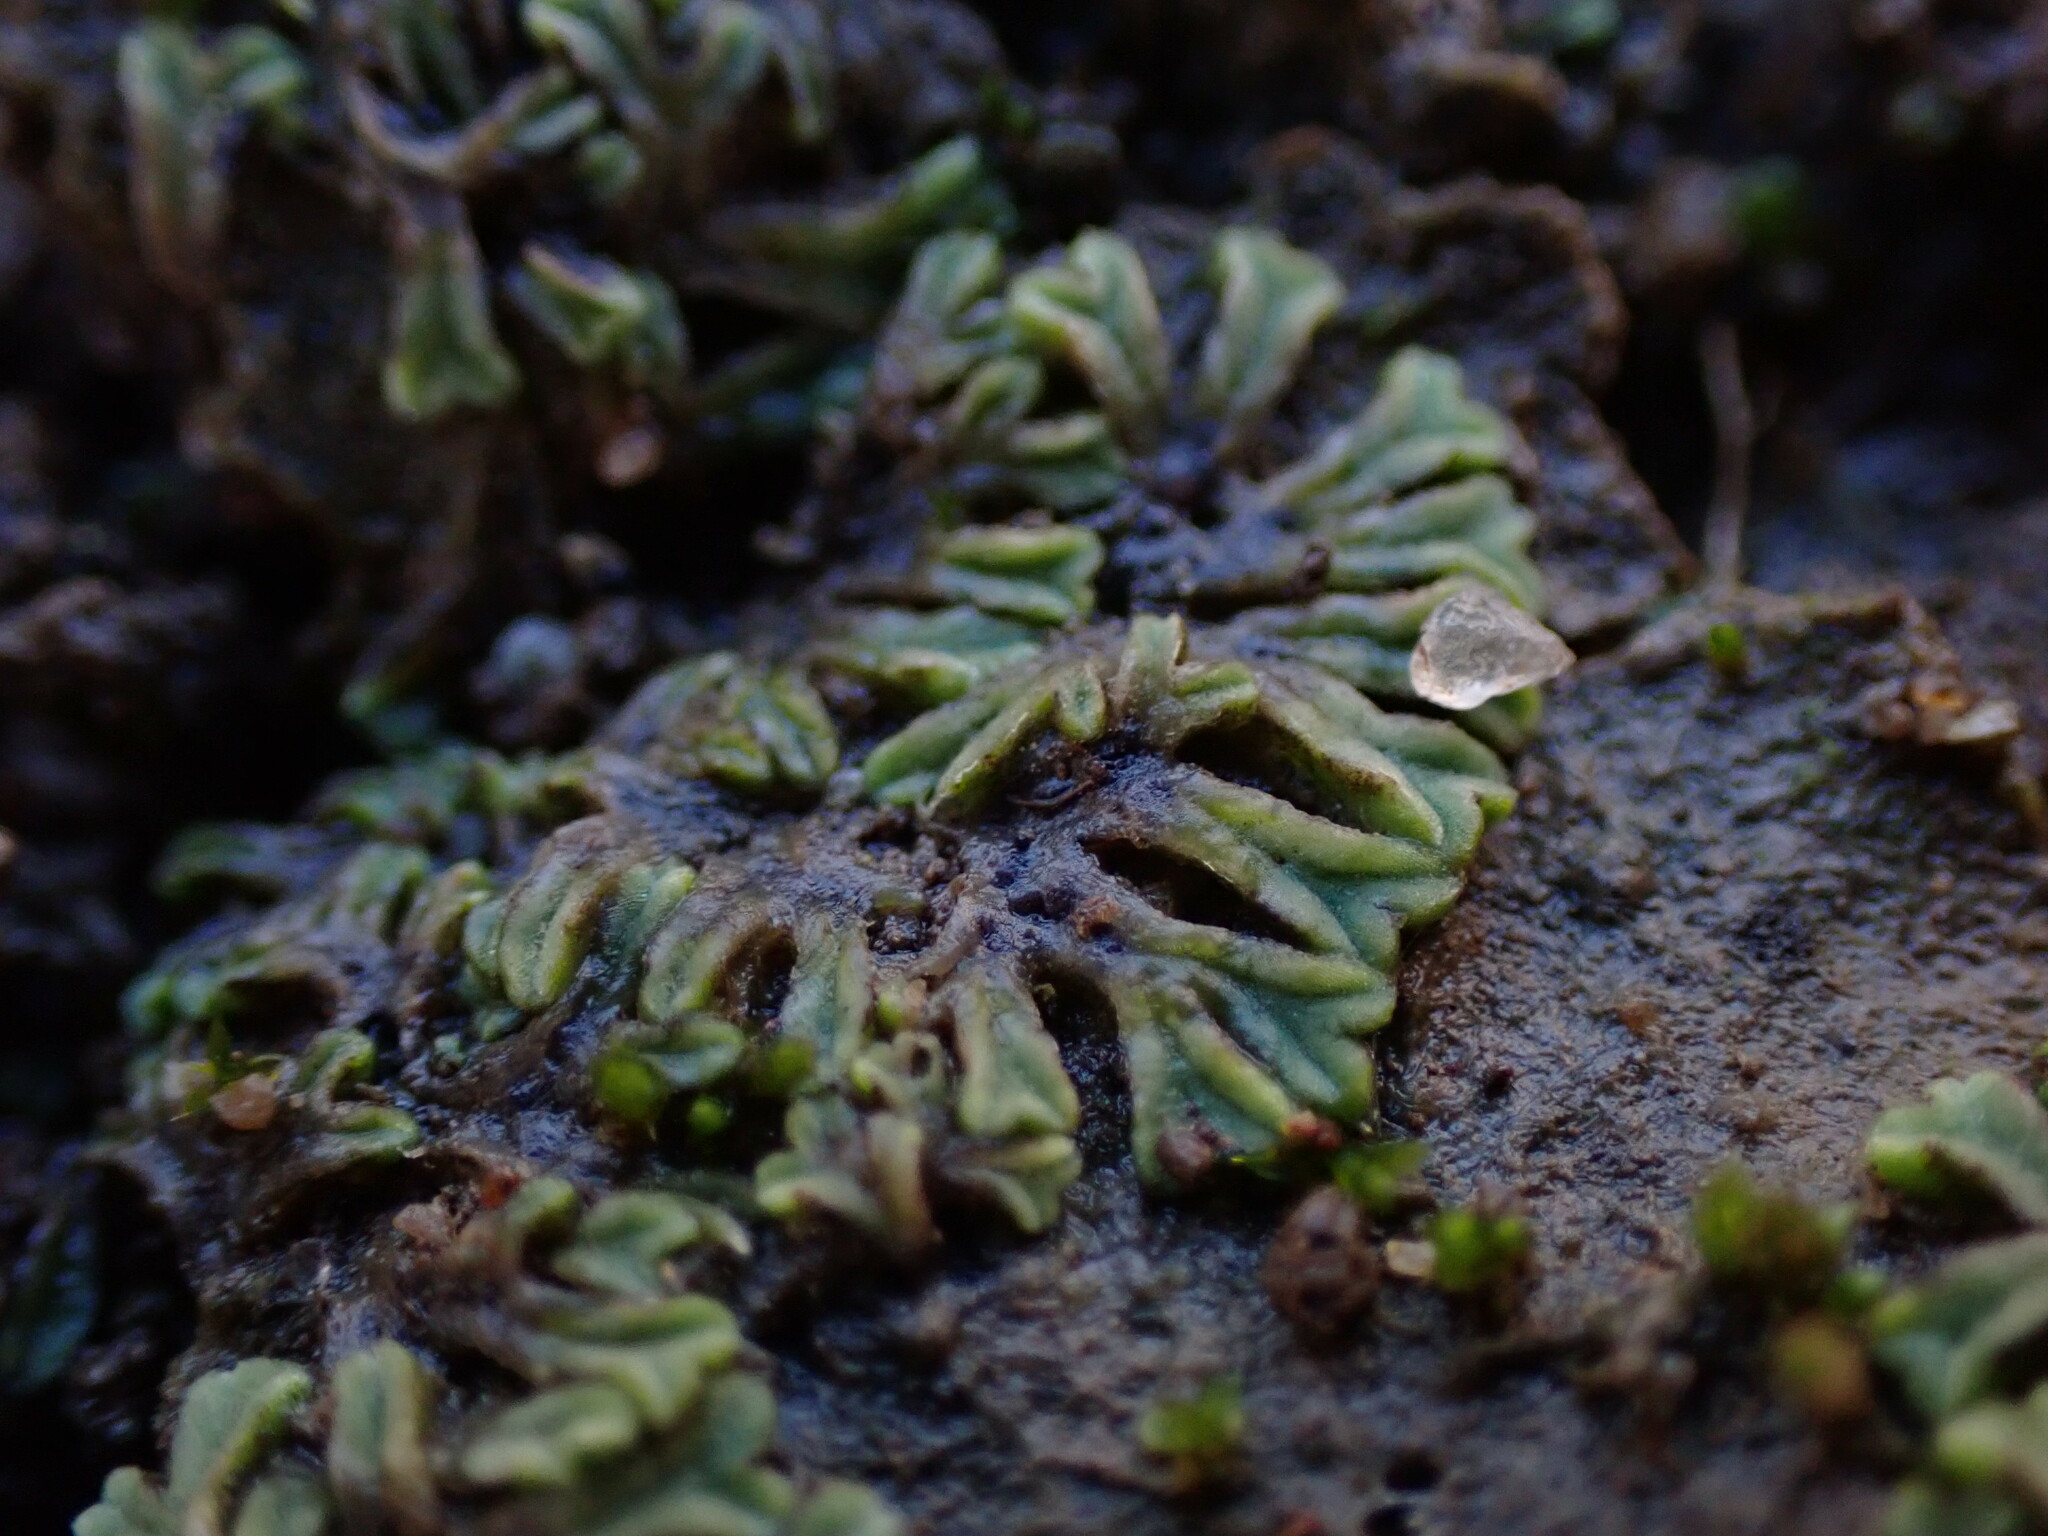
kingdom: Plantae
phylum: Marchantiophyta
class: Marchantiopsida
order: Marchantiales
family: Ricciaceae
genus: Riccia
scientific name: Riccia sorocarpa
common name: Common crystalwort
